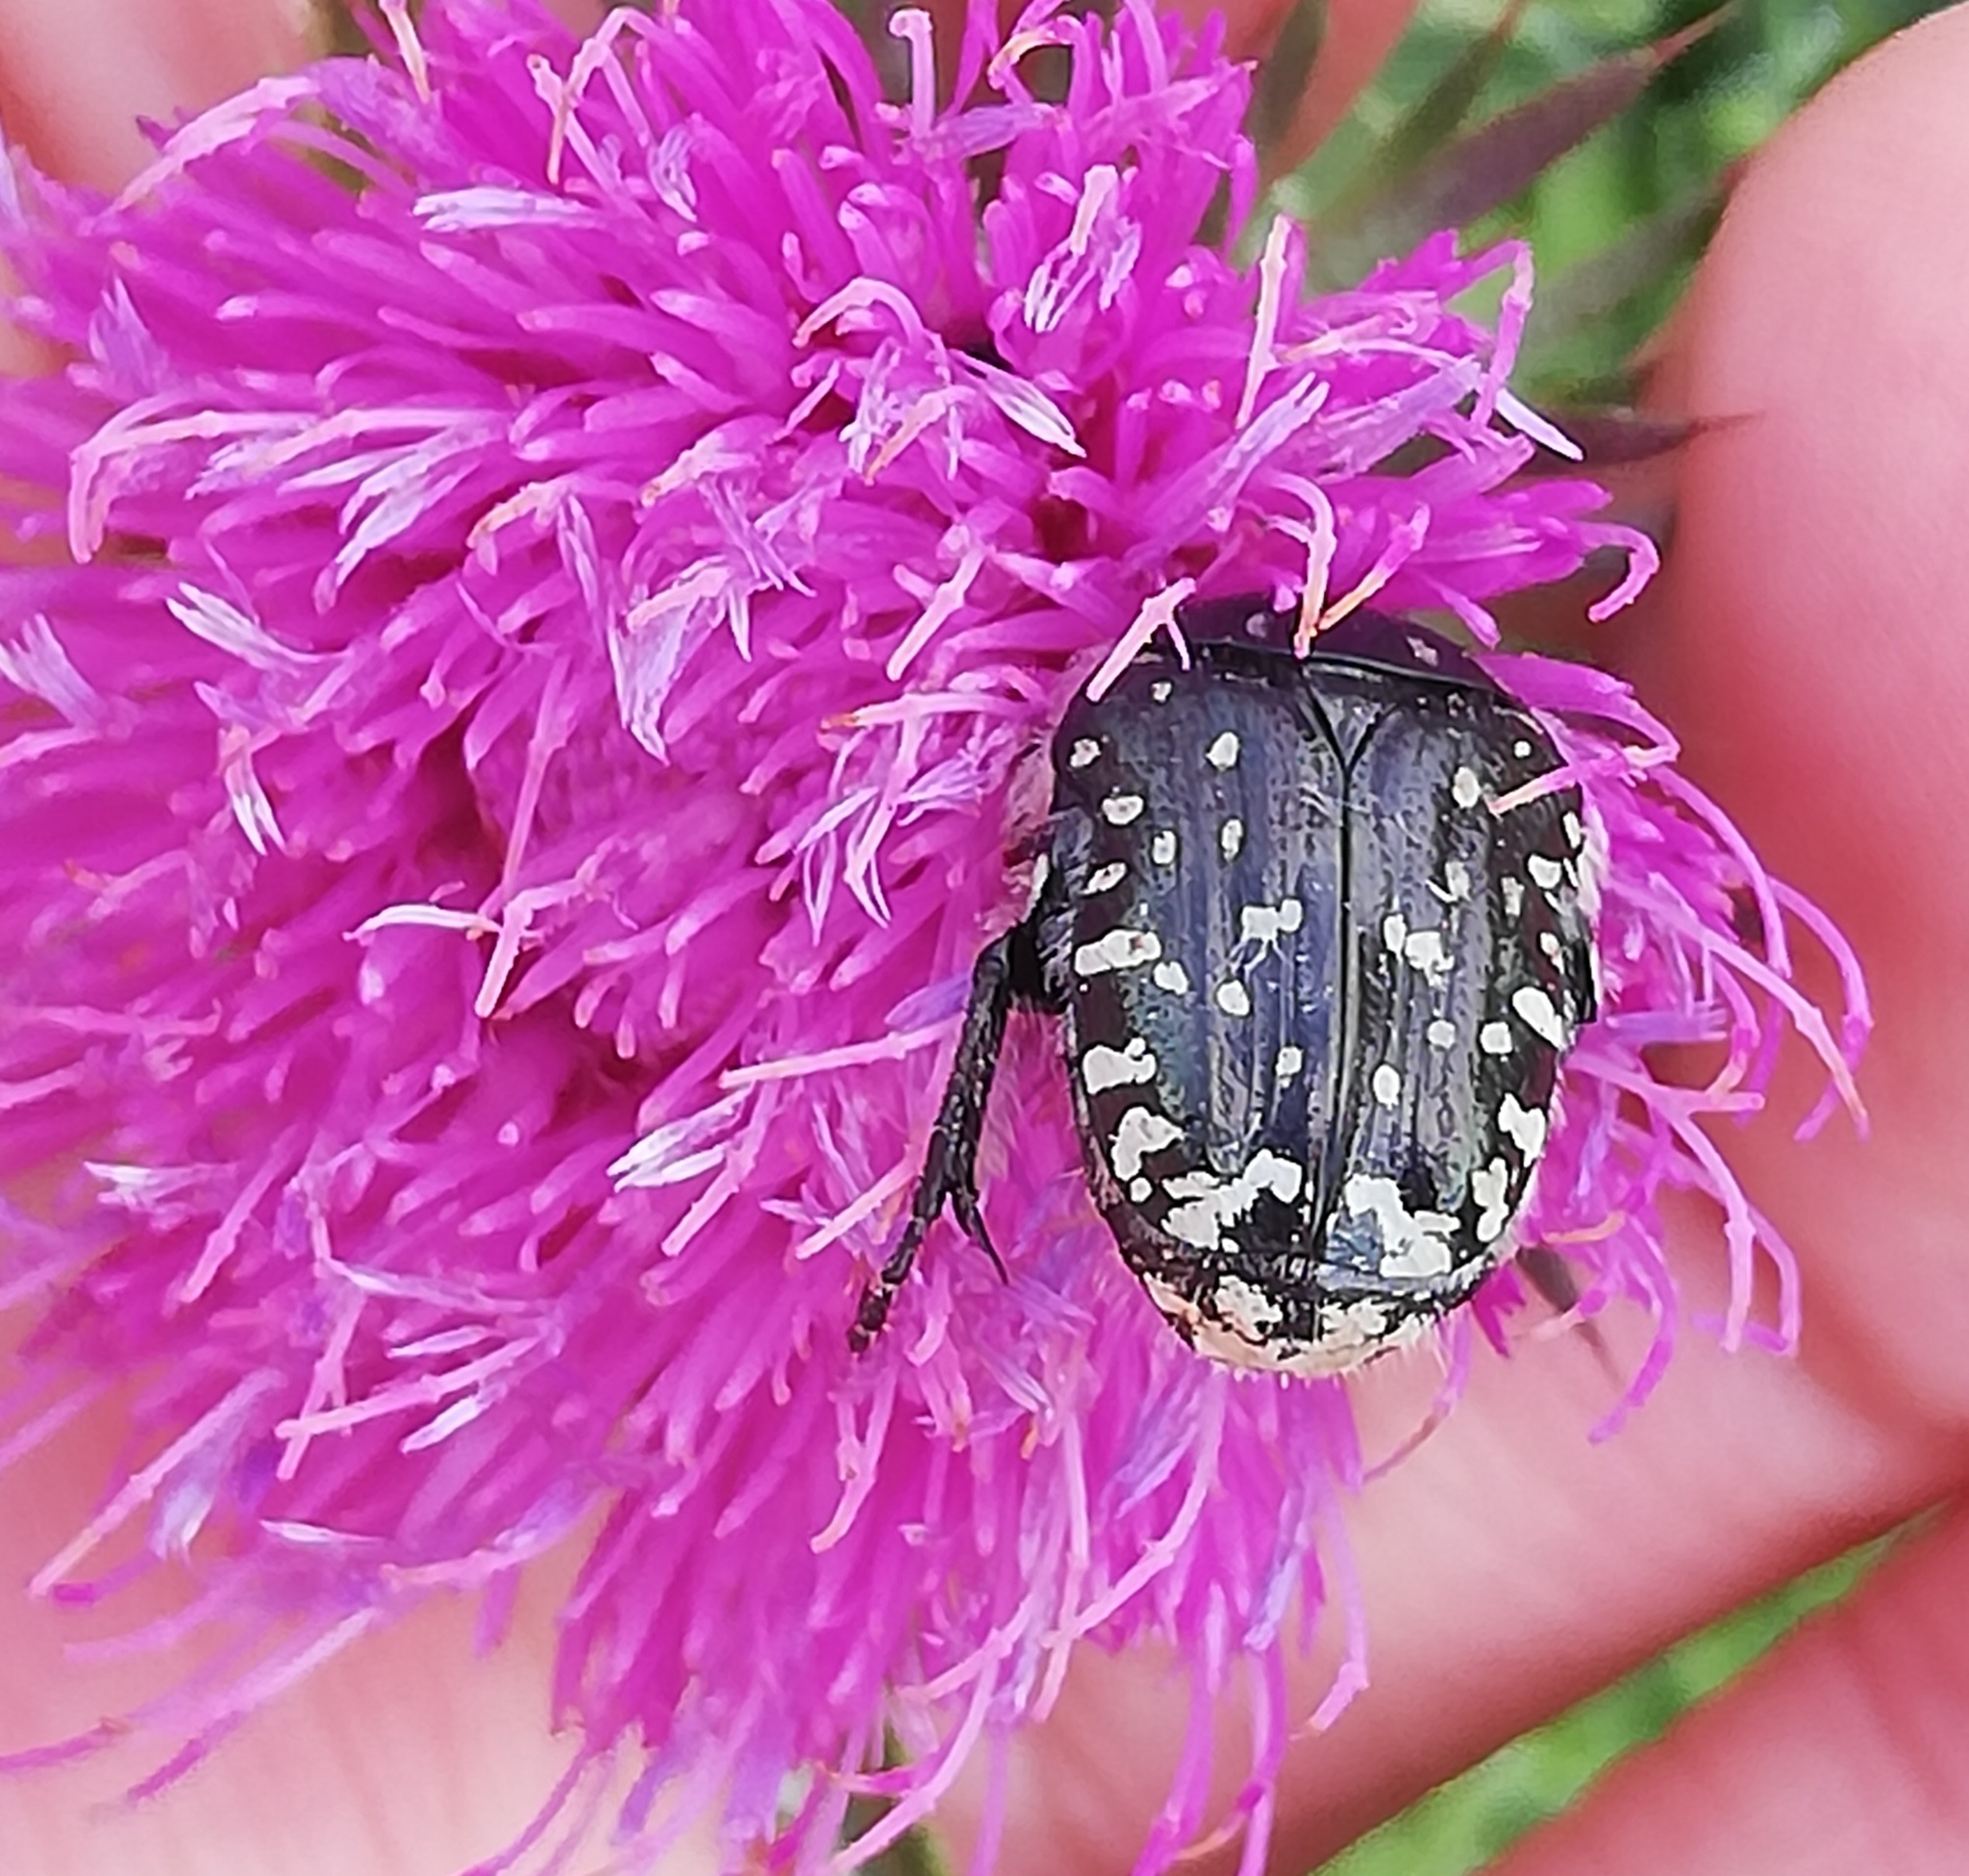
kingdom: Animalia
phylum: Arthropoda
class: Insecta
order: Coleoptera
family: Scarabaeidae
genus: Oxythyrea
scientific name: Oxythyrea funesta
